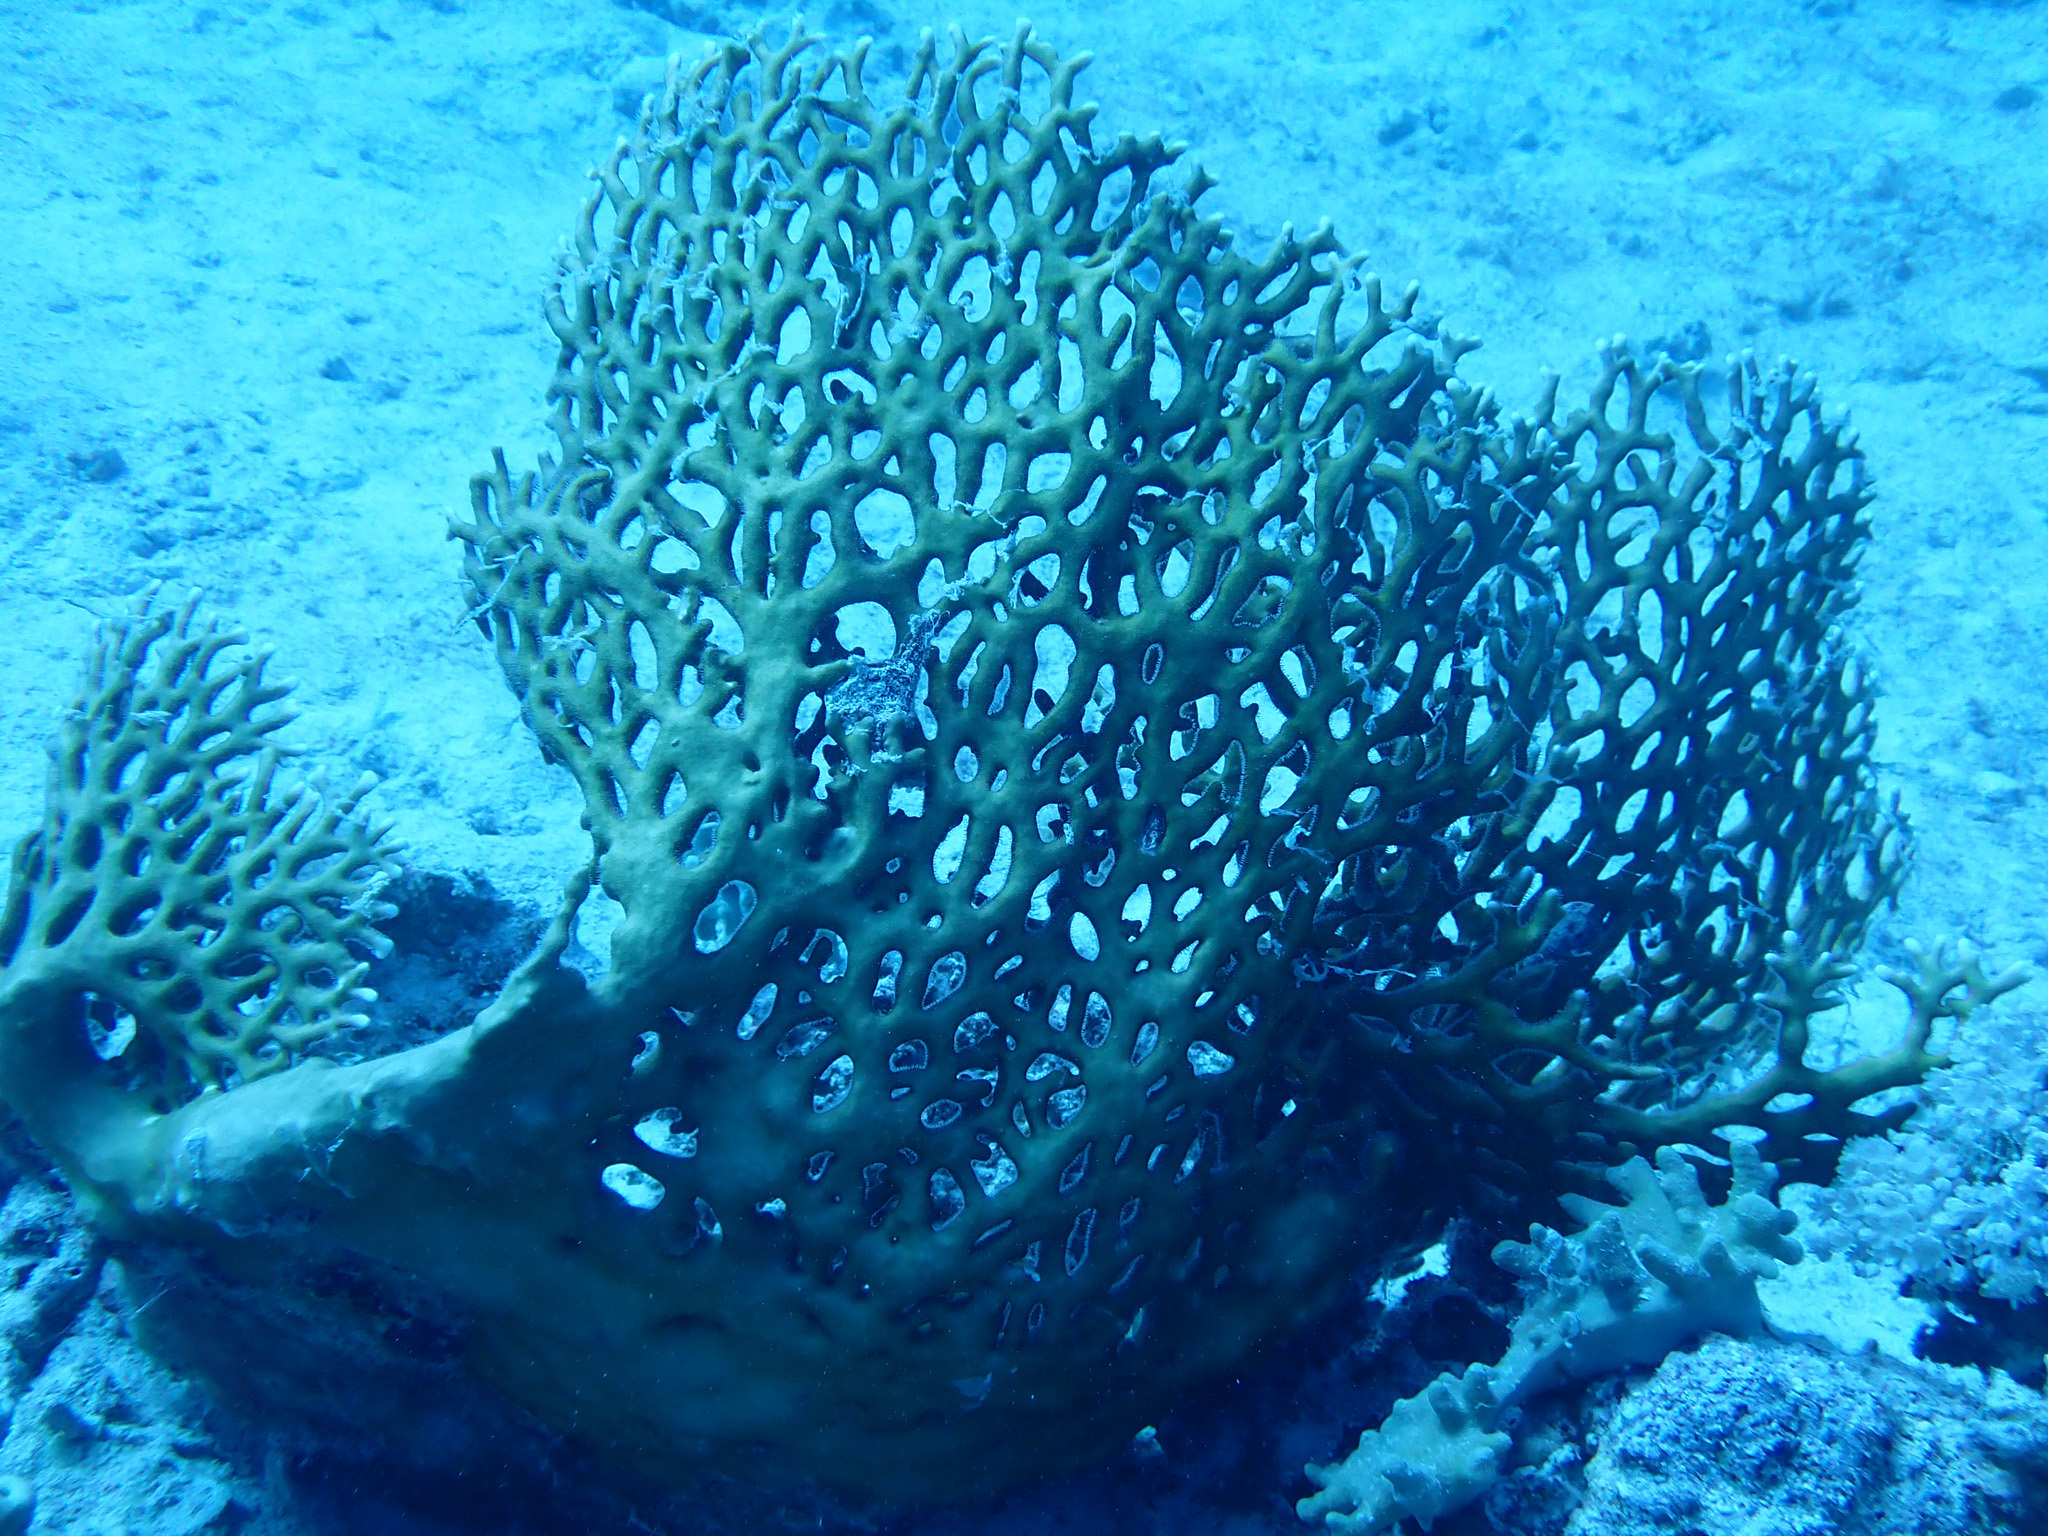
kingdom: Animalia
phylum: Cnidaria
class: Hydrozoa
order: Anthoathecata
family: Milleporidae
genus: Millepora
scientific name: Millepora dichotoma
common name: Ramified fire coral
